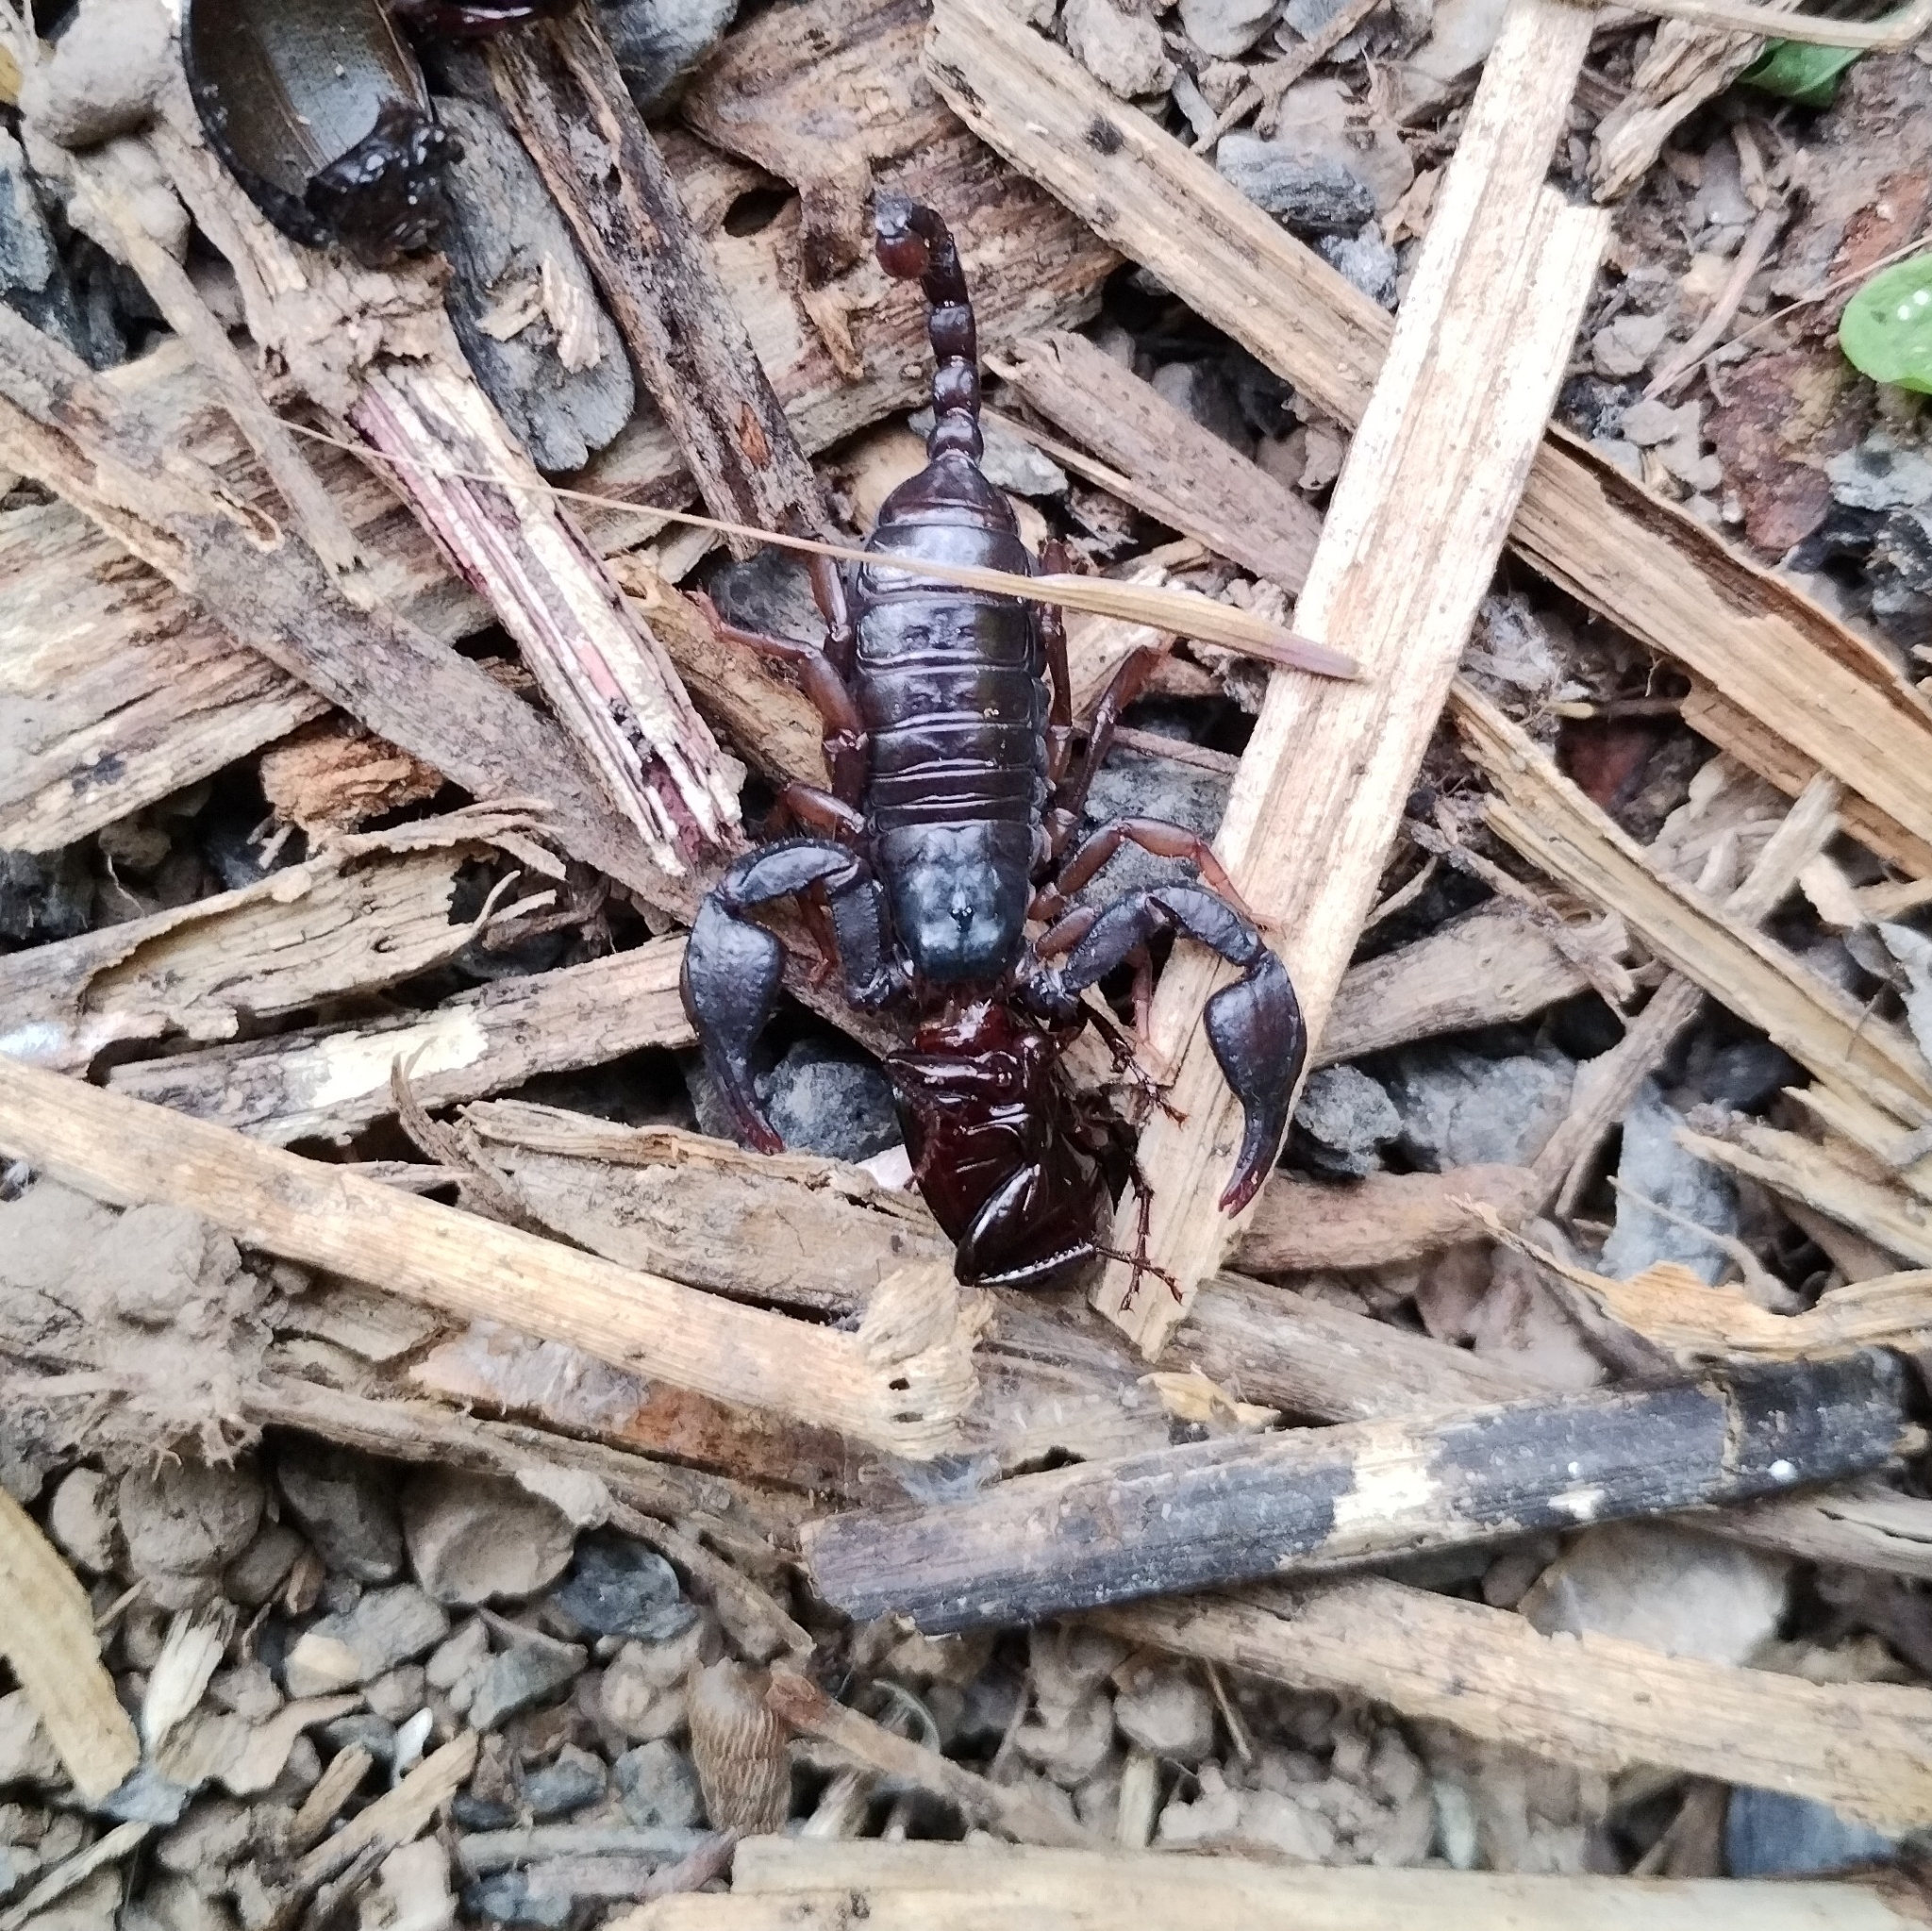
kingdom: Animalia
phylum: Arthropoda
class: Arachnida
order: Scorpiones
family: Euscorpiidae
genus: Euscorpius
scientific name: Euscorpius deltshevi
